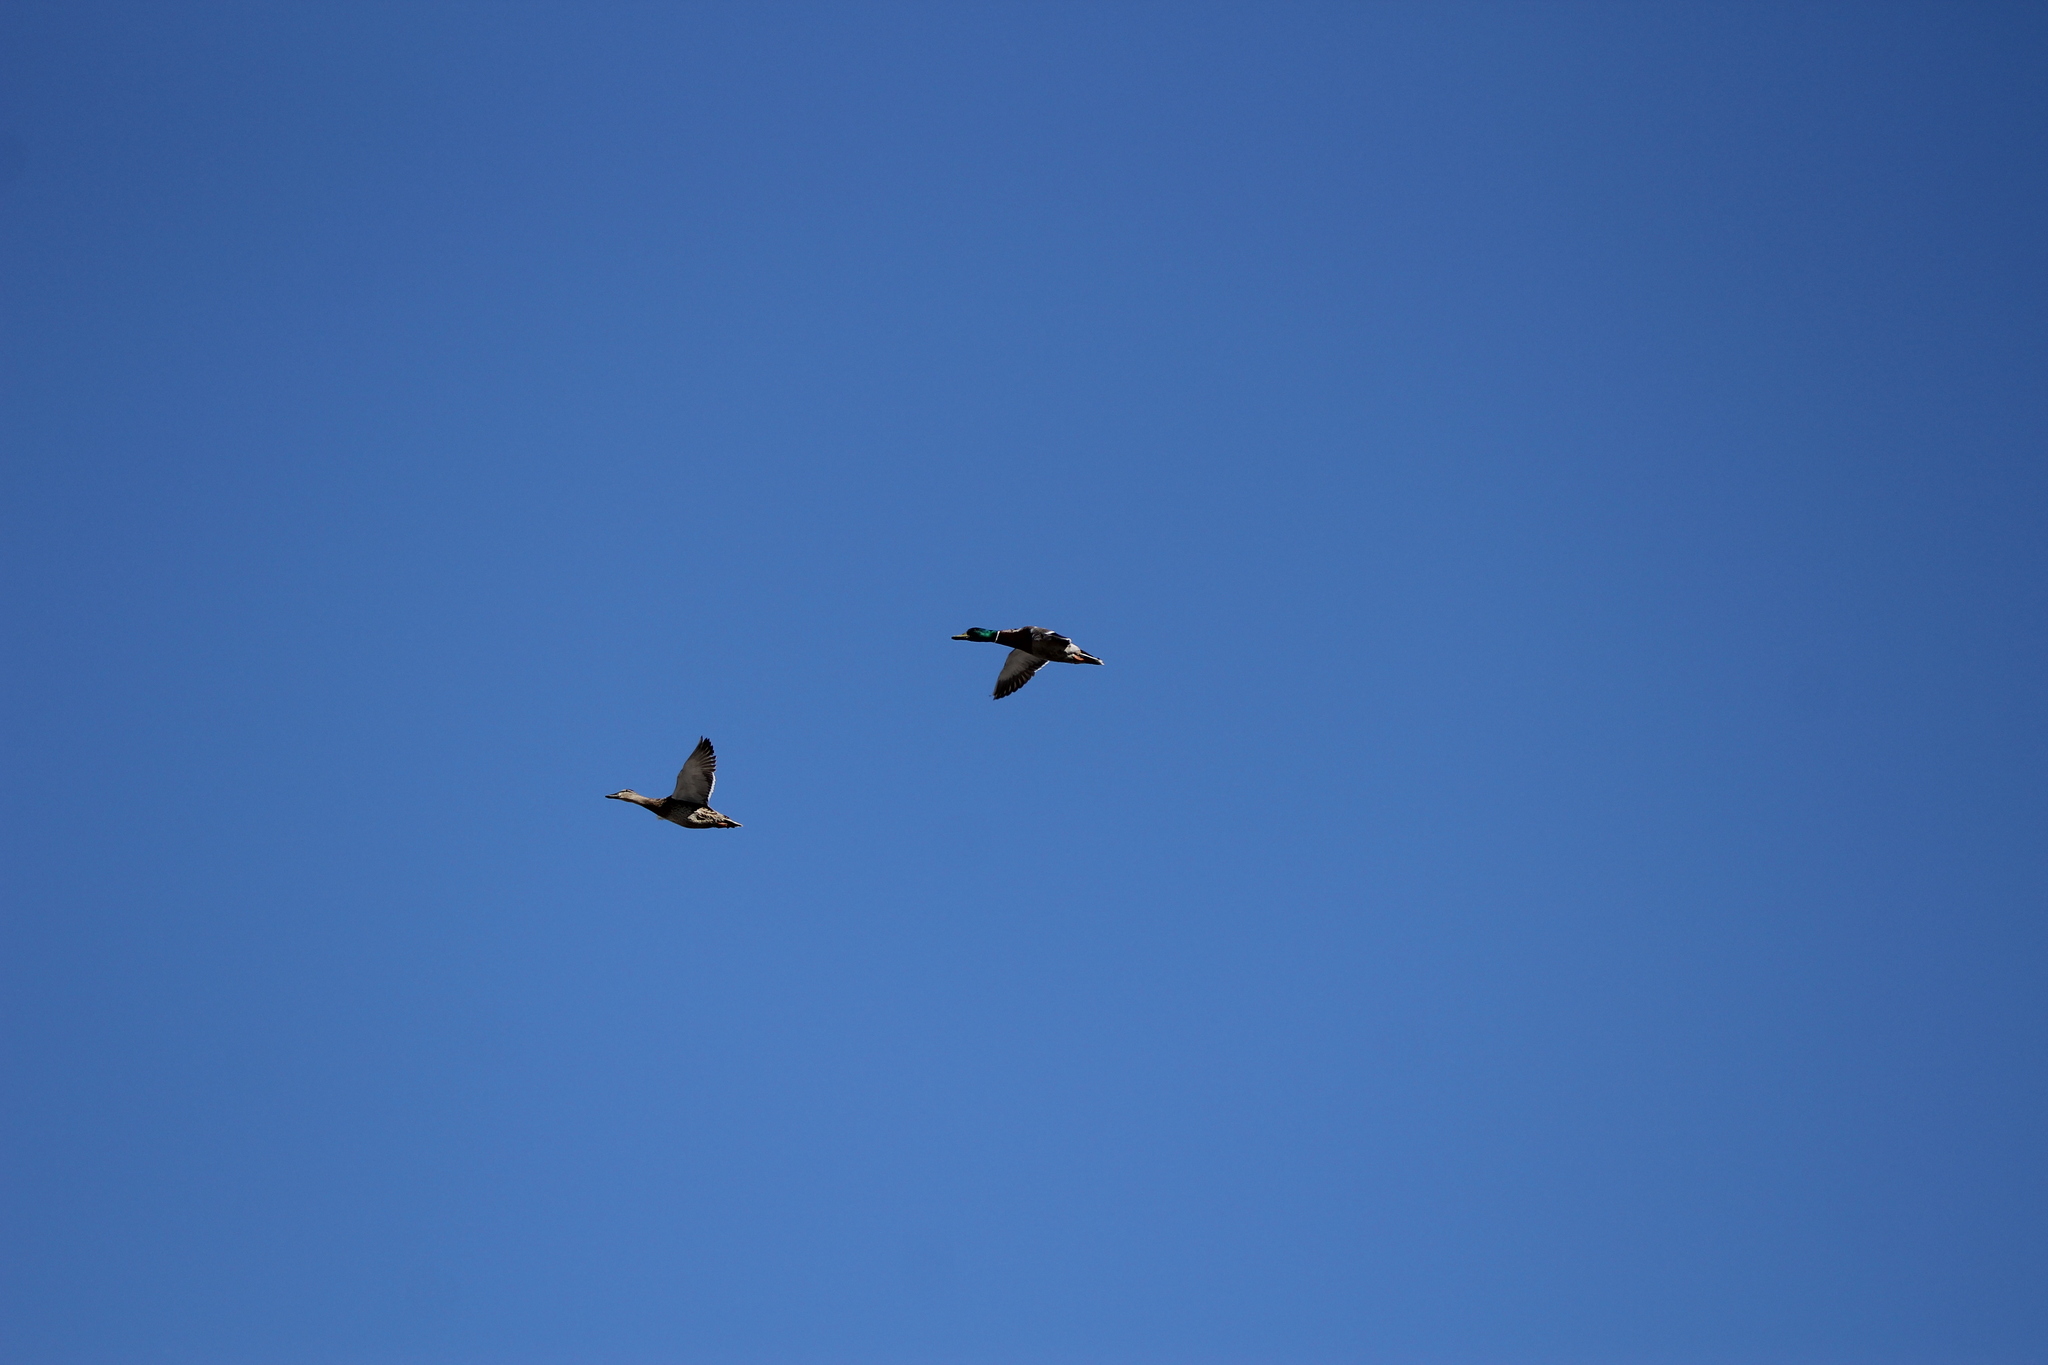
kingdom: Animalia
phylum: Chordata
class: Aves
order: Anseriformes
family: Anatidae
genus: Anas
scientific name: Anas platyrhynchos
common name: Mallard
